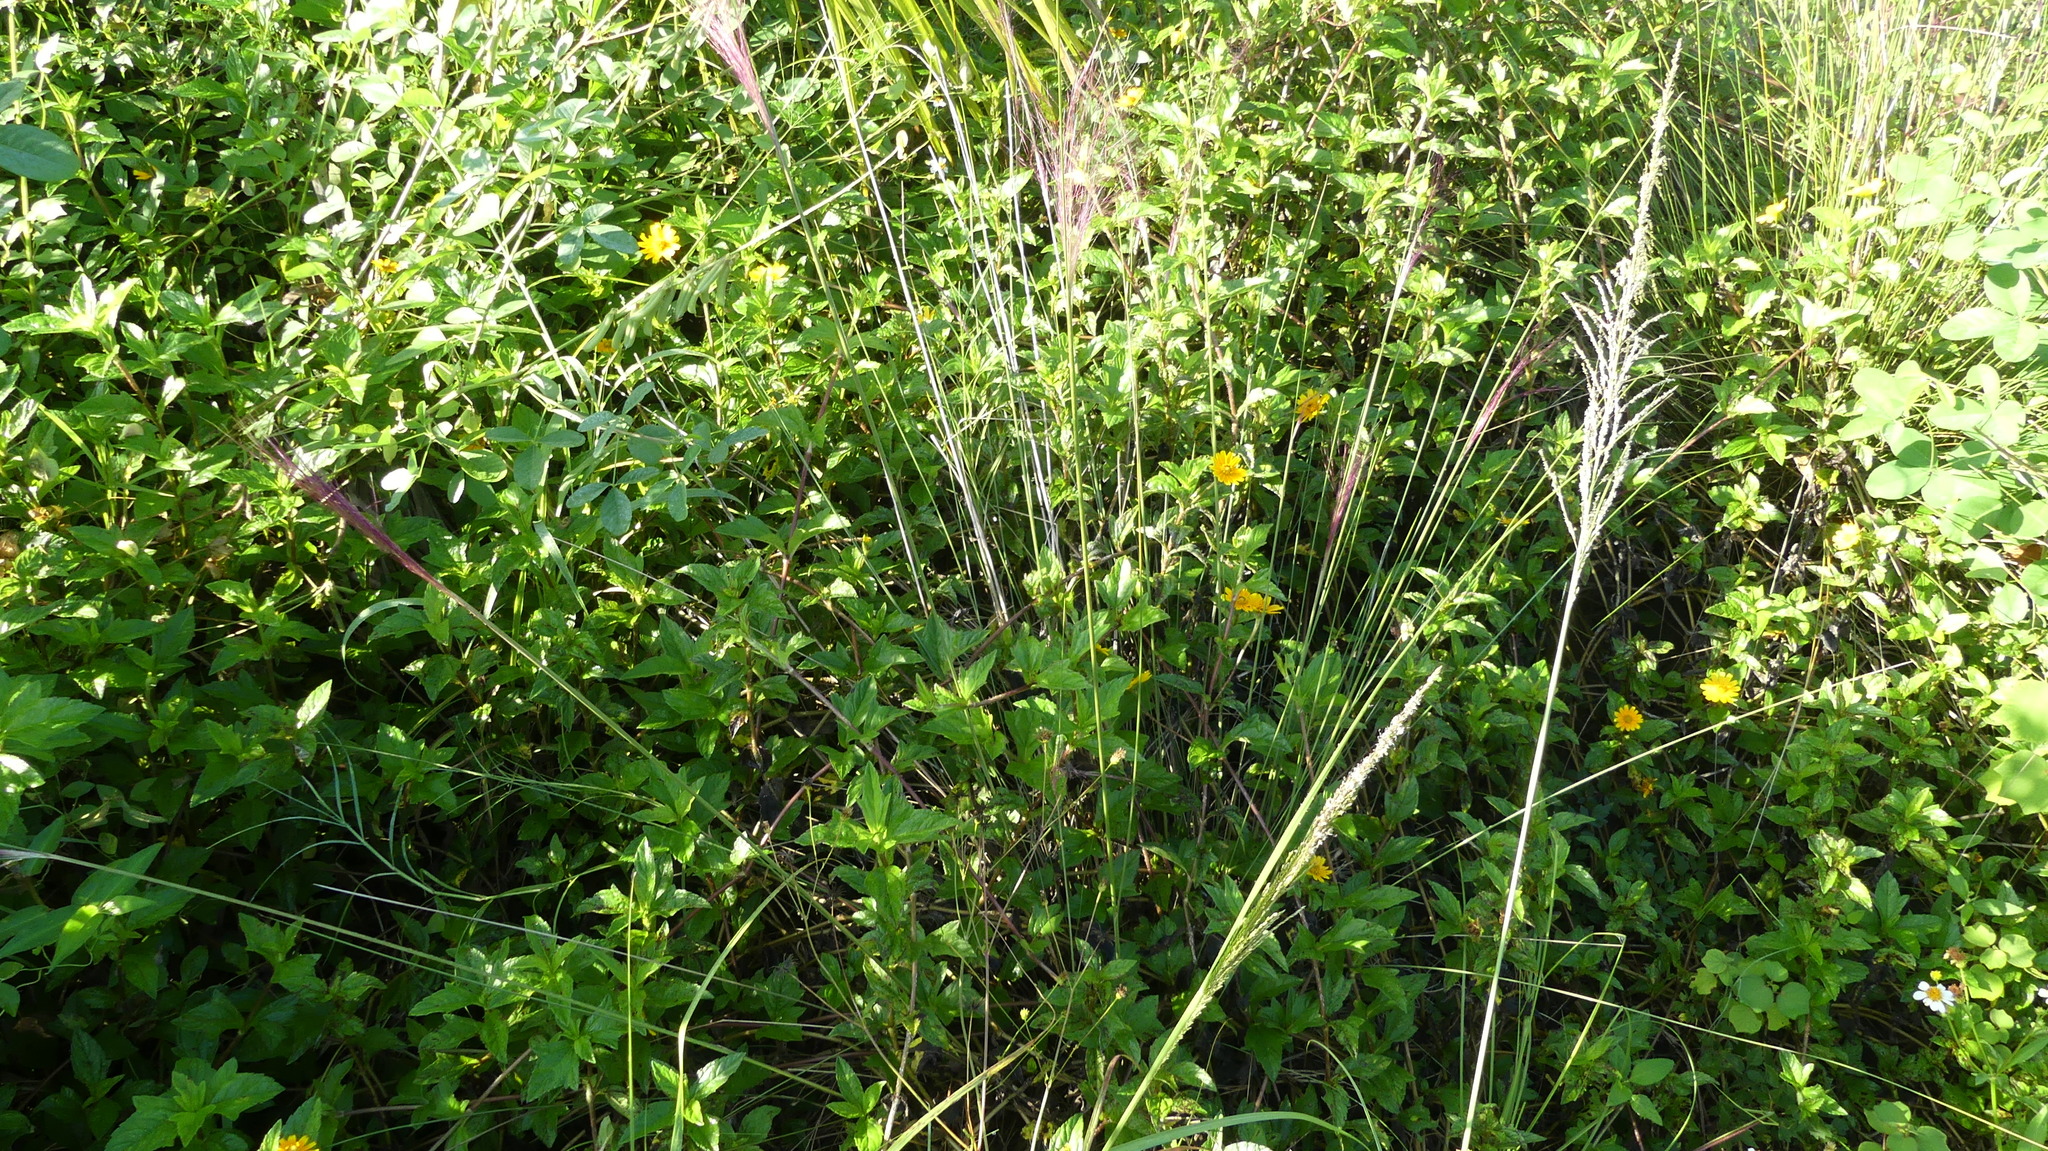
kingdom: Plantae
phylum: Tracheophyta
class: Magnoliopsida
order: Asterales
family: Asteraceae
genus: Sphagneticola
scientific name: Sphagneticola trilobata
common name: Bay biscayne creeping-oxeye
